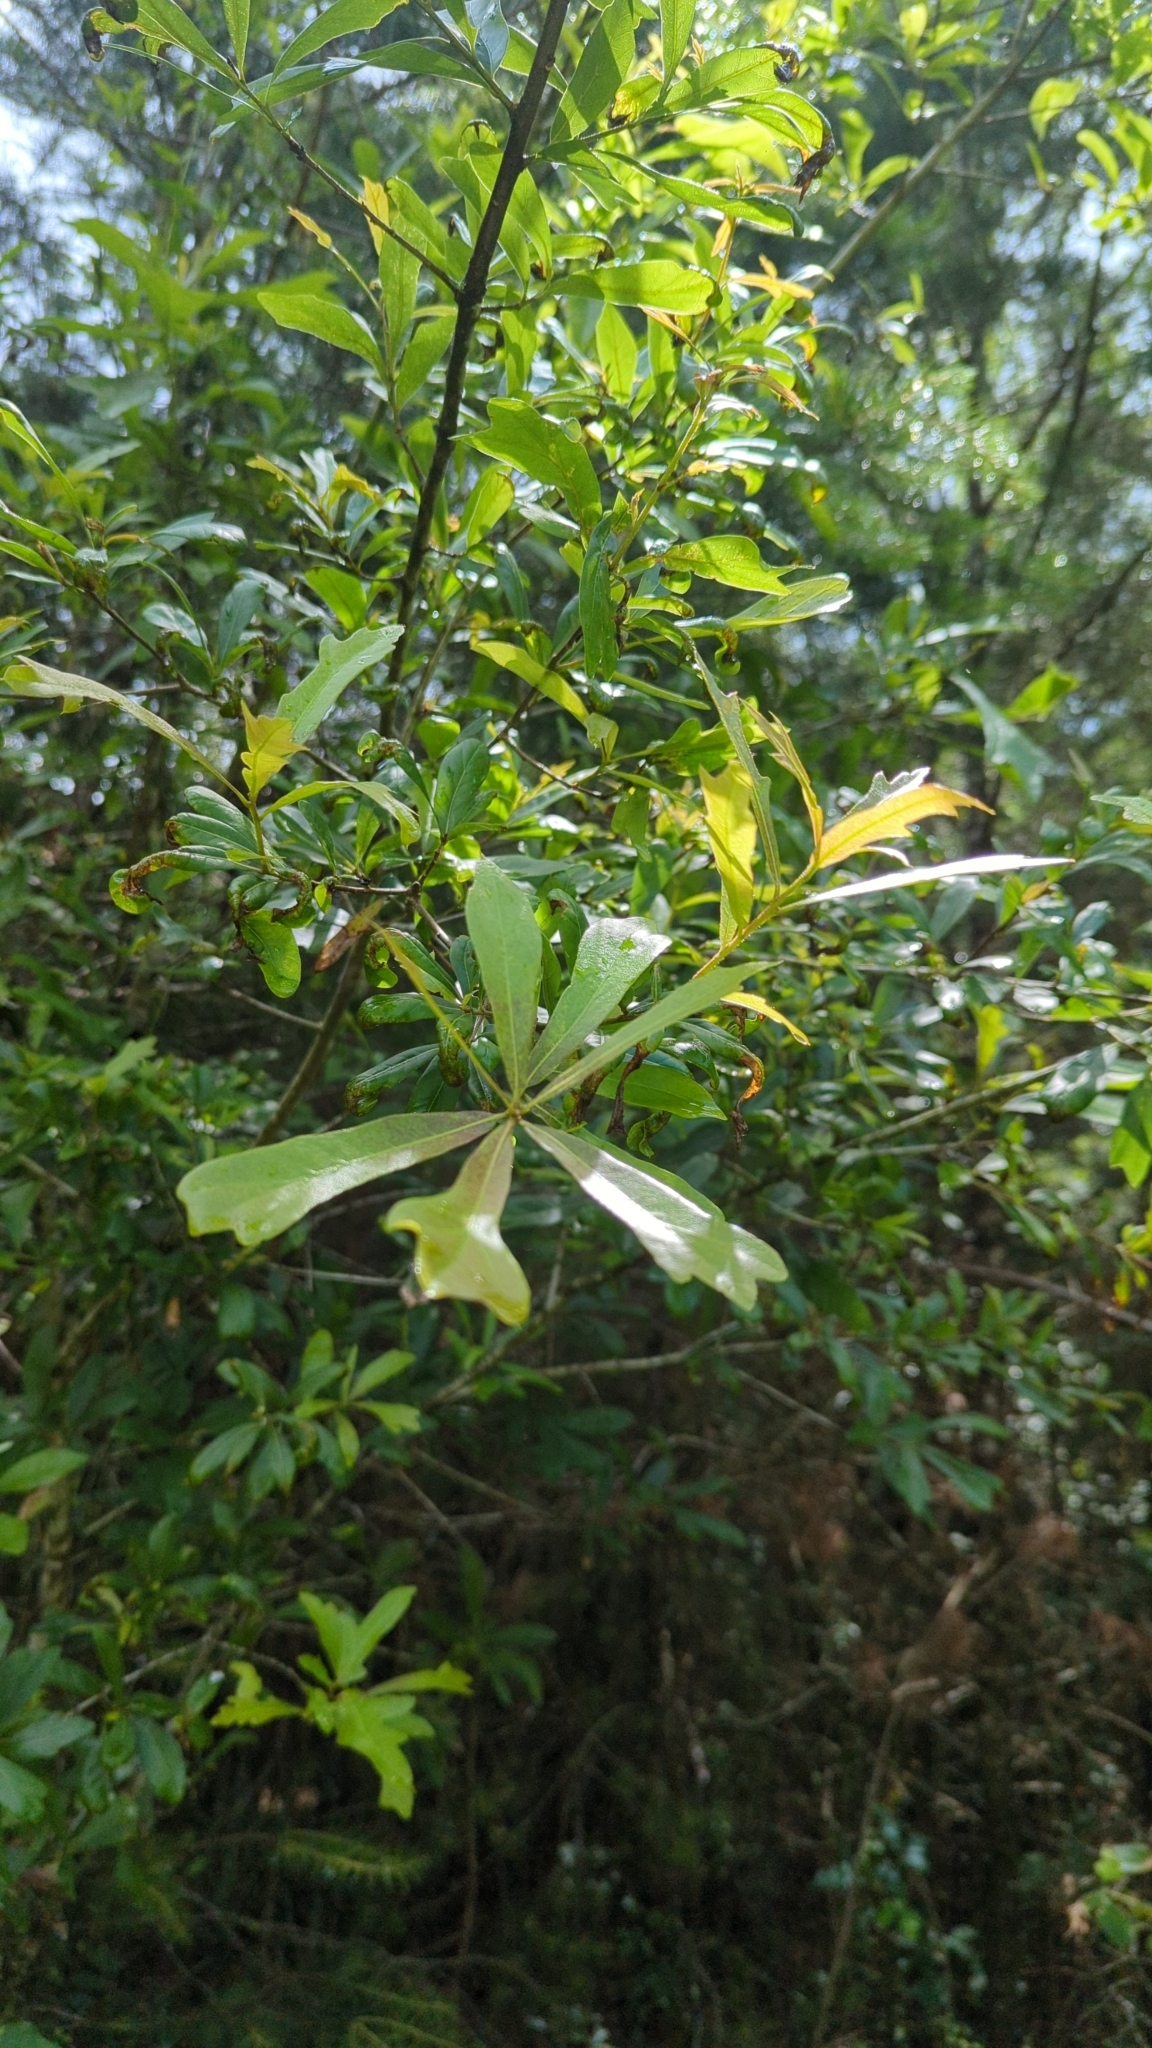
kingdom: Plantae
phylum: Tracheophyta
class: Magnoliopsida
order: Fagales
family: Fagaceae
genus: Quercus
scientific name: Quercus nigra
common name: Water oak
